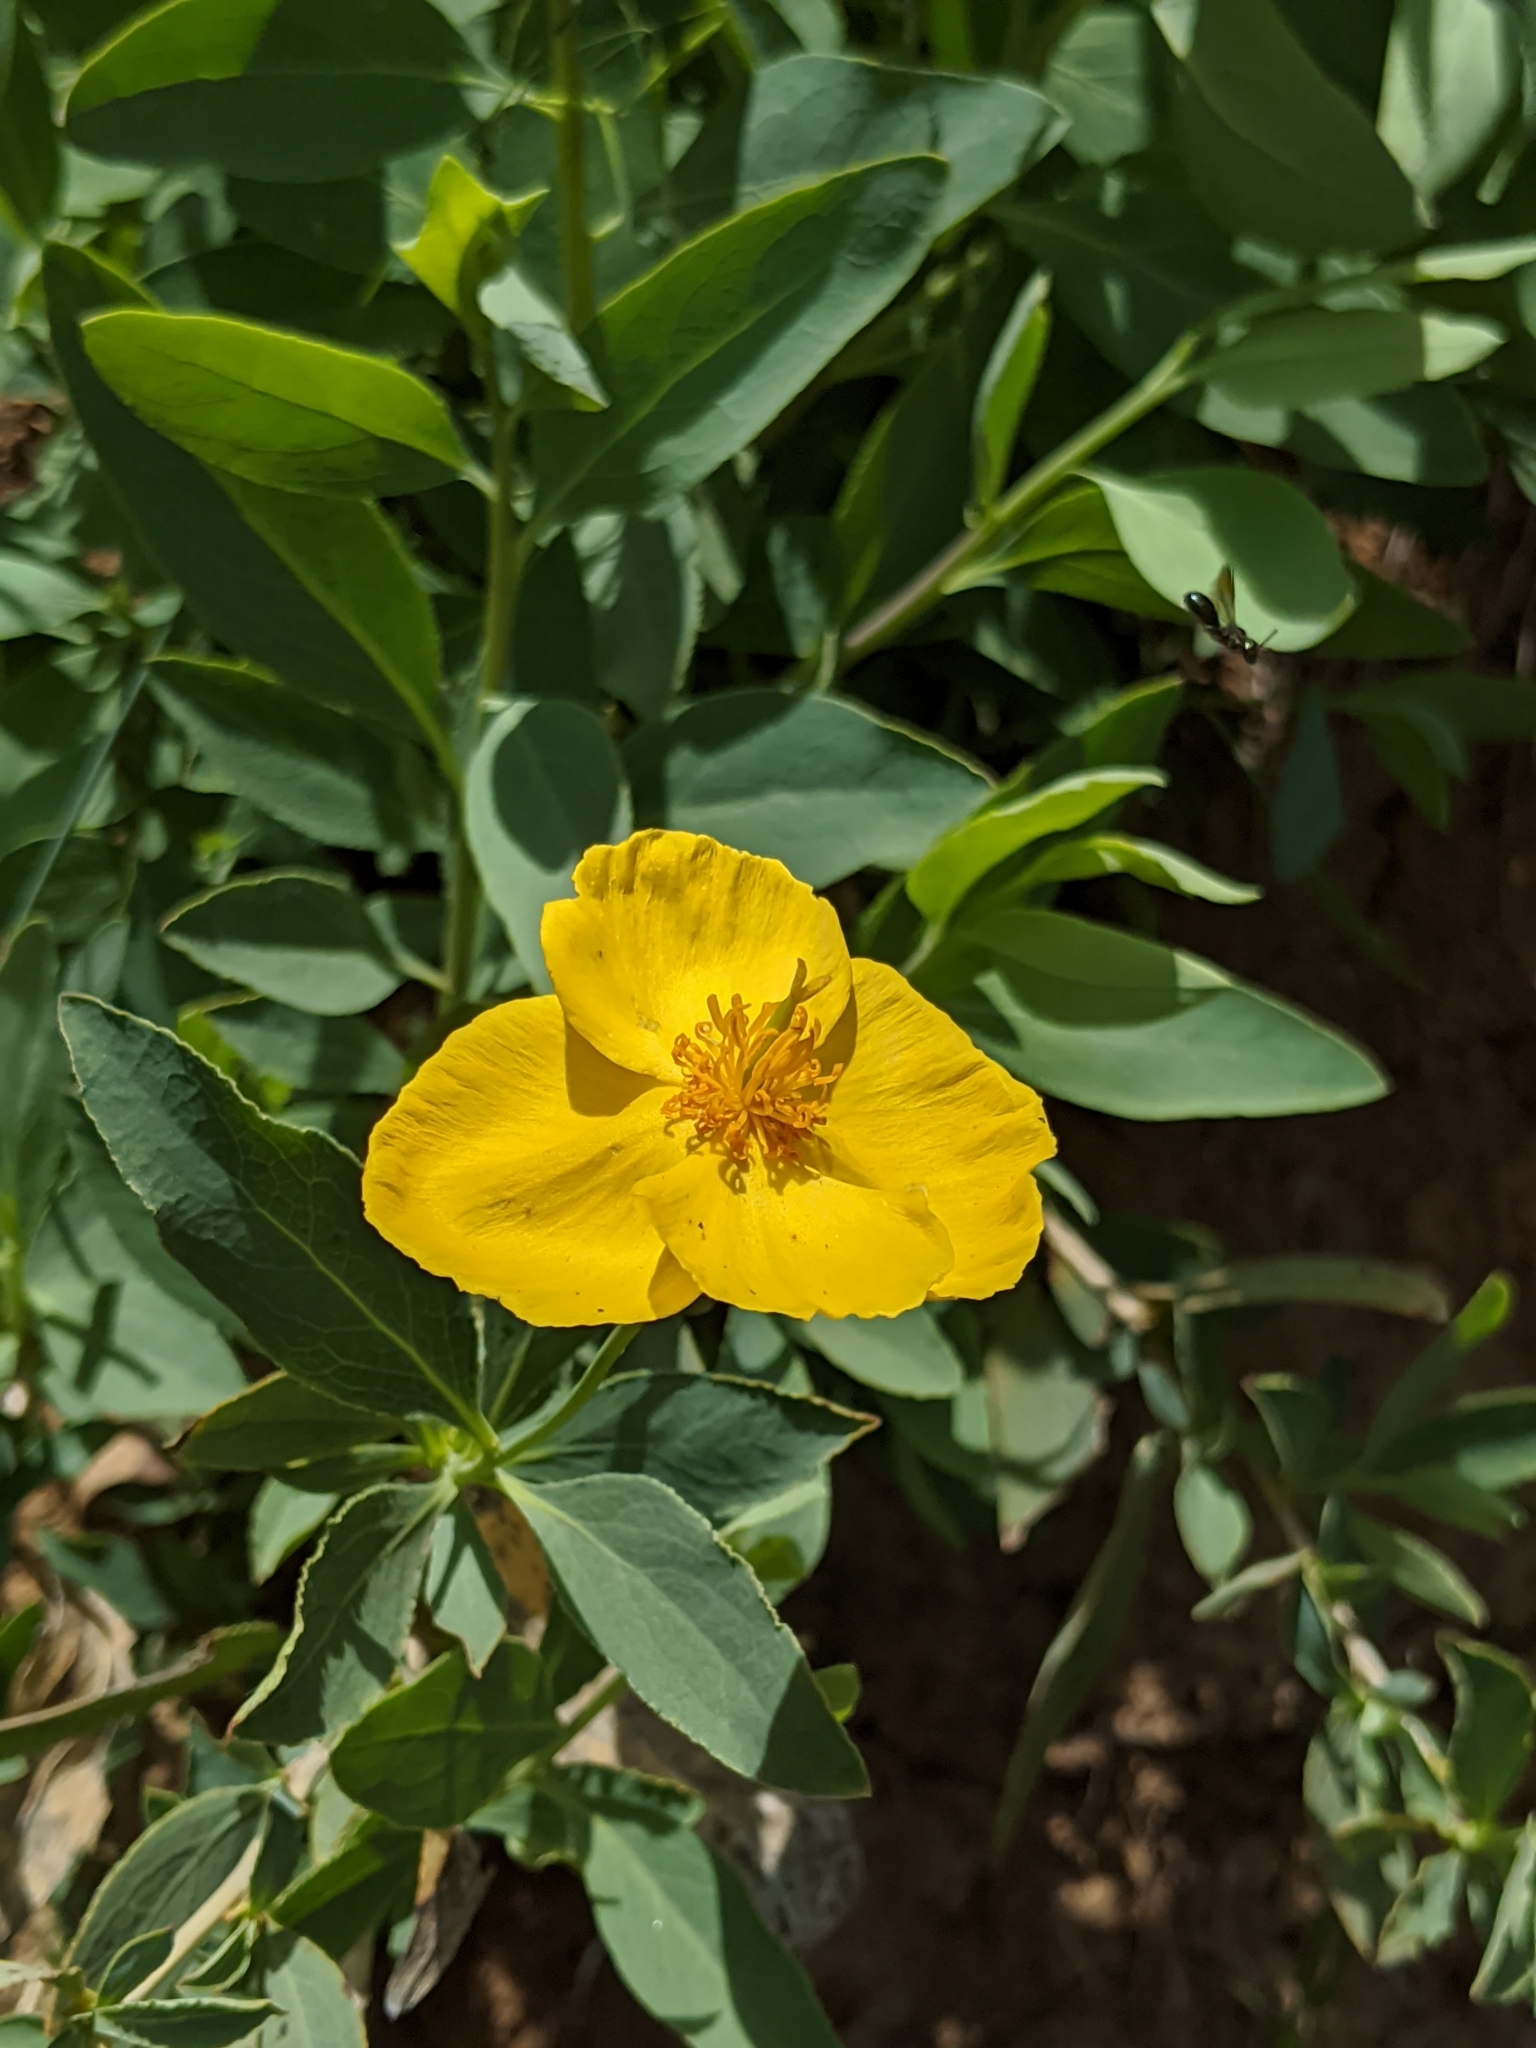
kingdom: Plantae
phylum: Tracheophyta
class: Magnoliopsida
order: Ranunculales
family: Papaveraceae
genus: Dendromecon
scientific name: Dendromecon rigida
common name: Tree poppy
